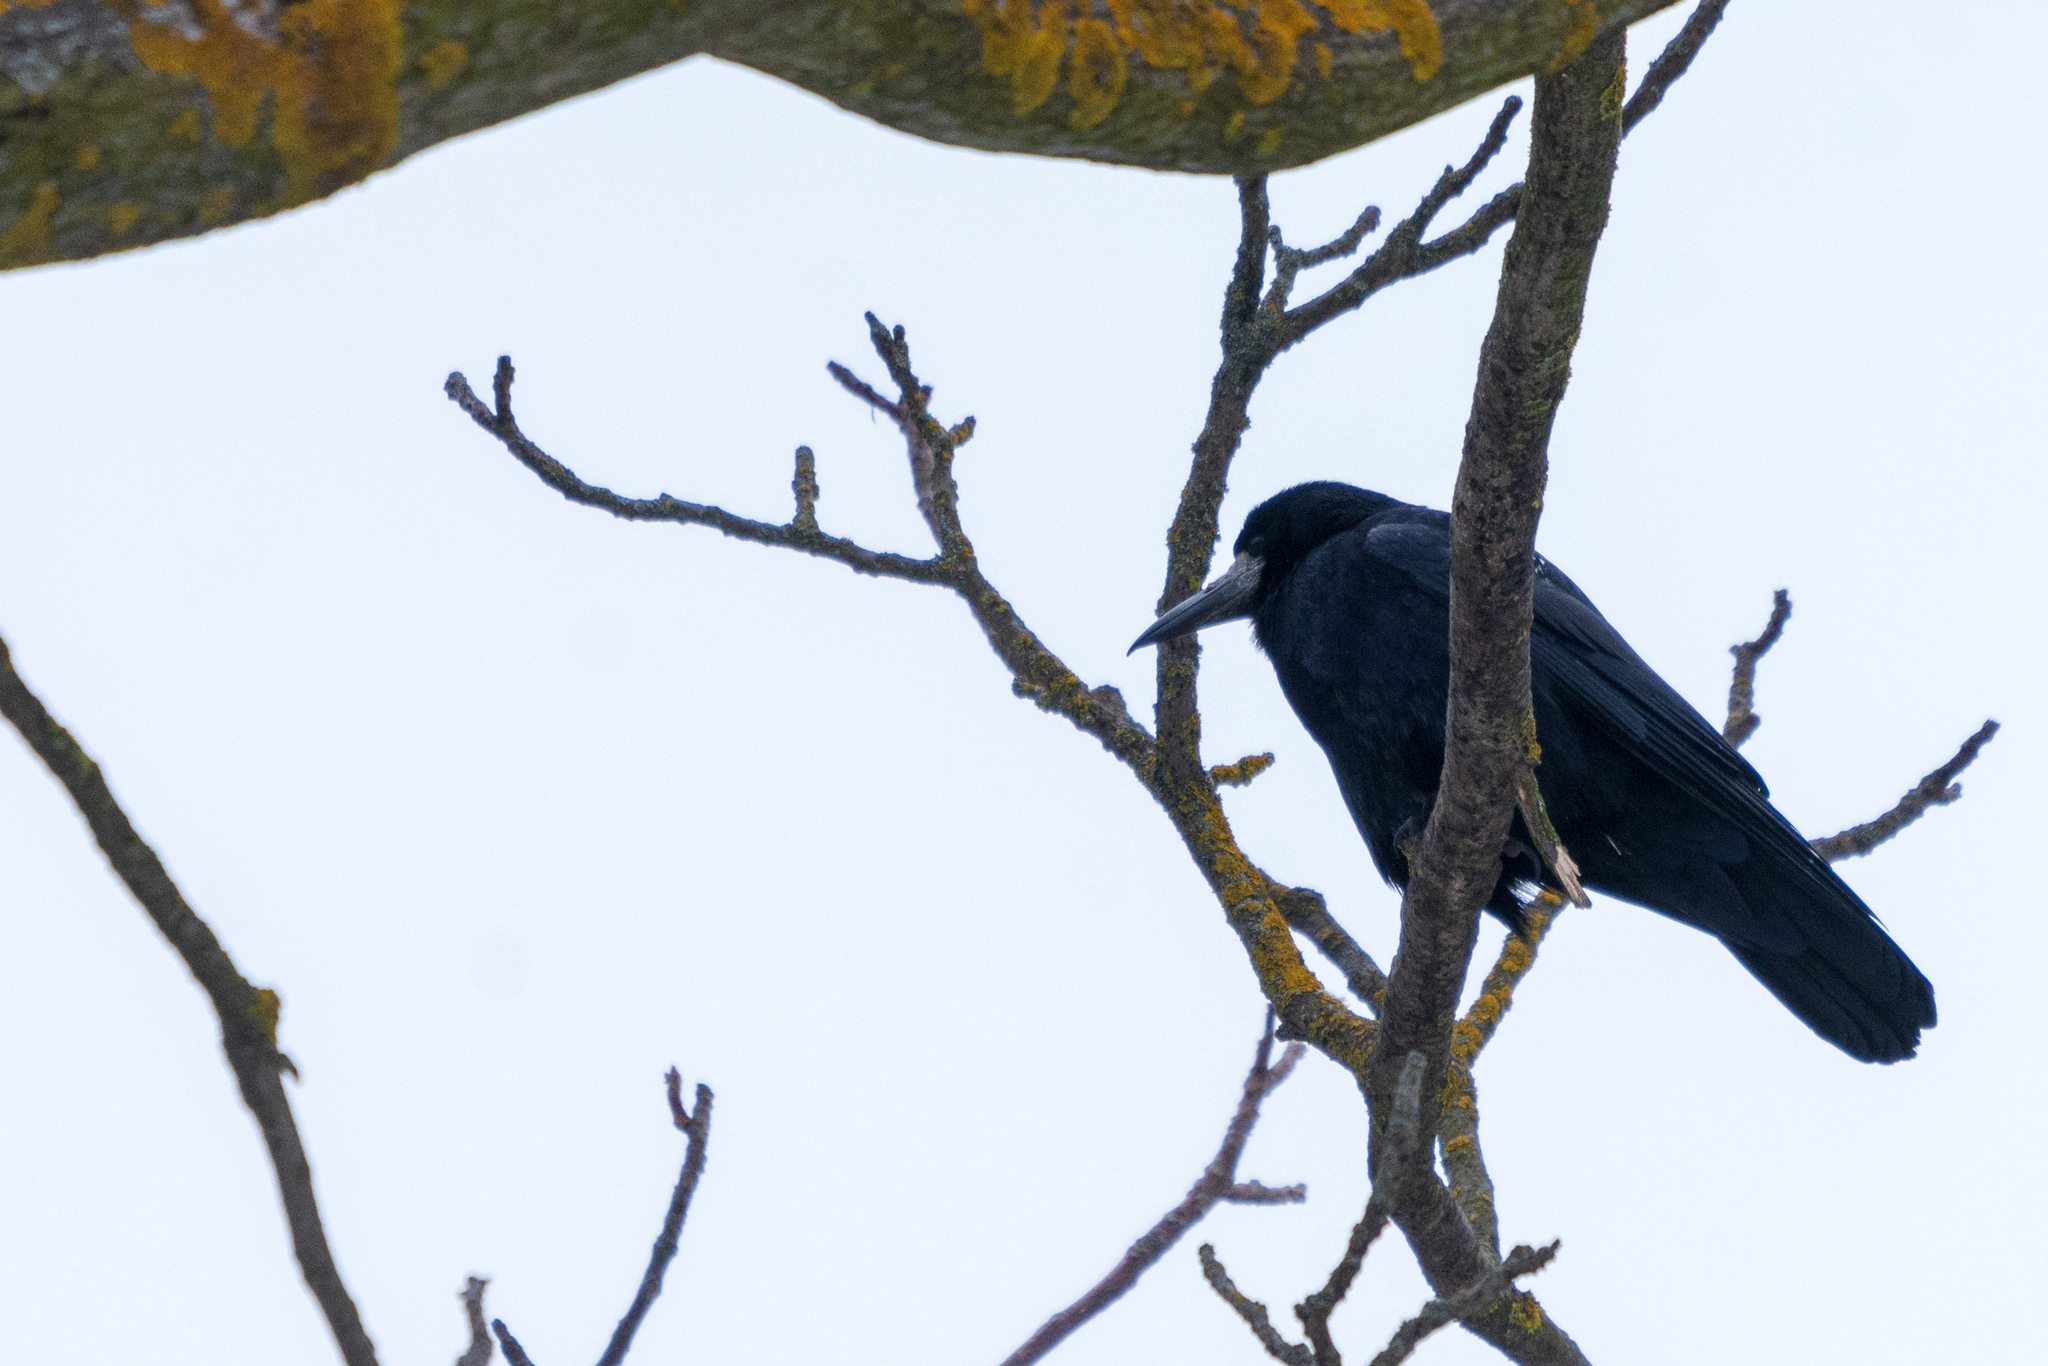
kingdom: Animalia
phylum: Chordata
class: Aves
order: Passeriformes
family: Corvidae
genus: Corvus
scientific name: Corvus frugilegus
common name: Rook
